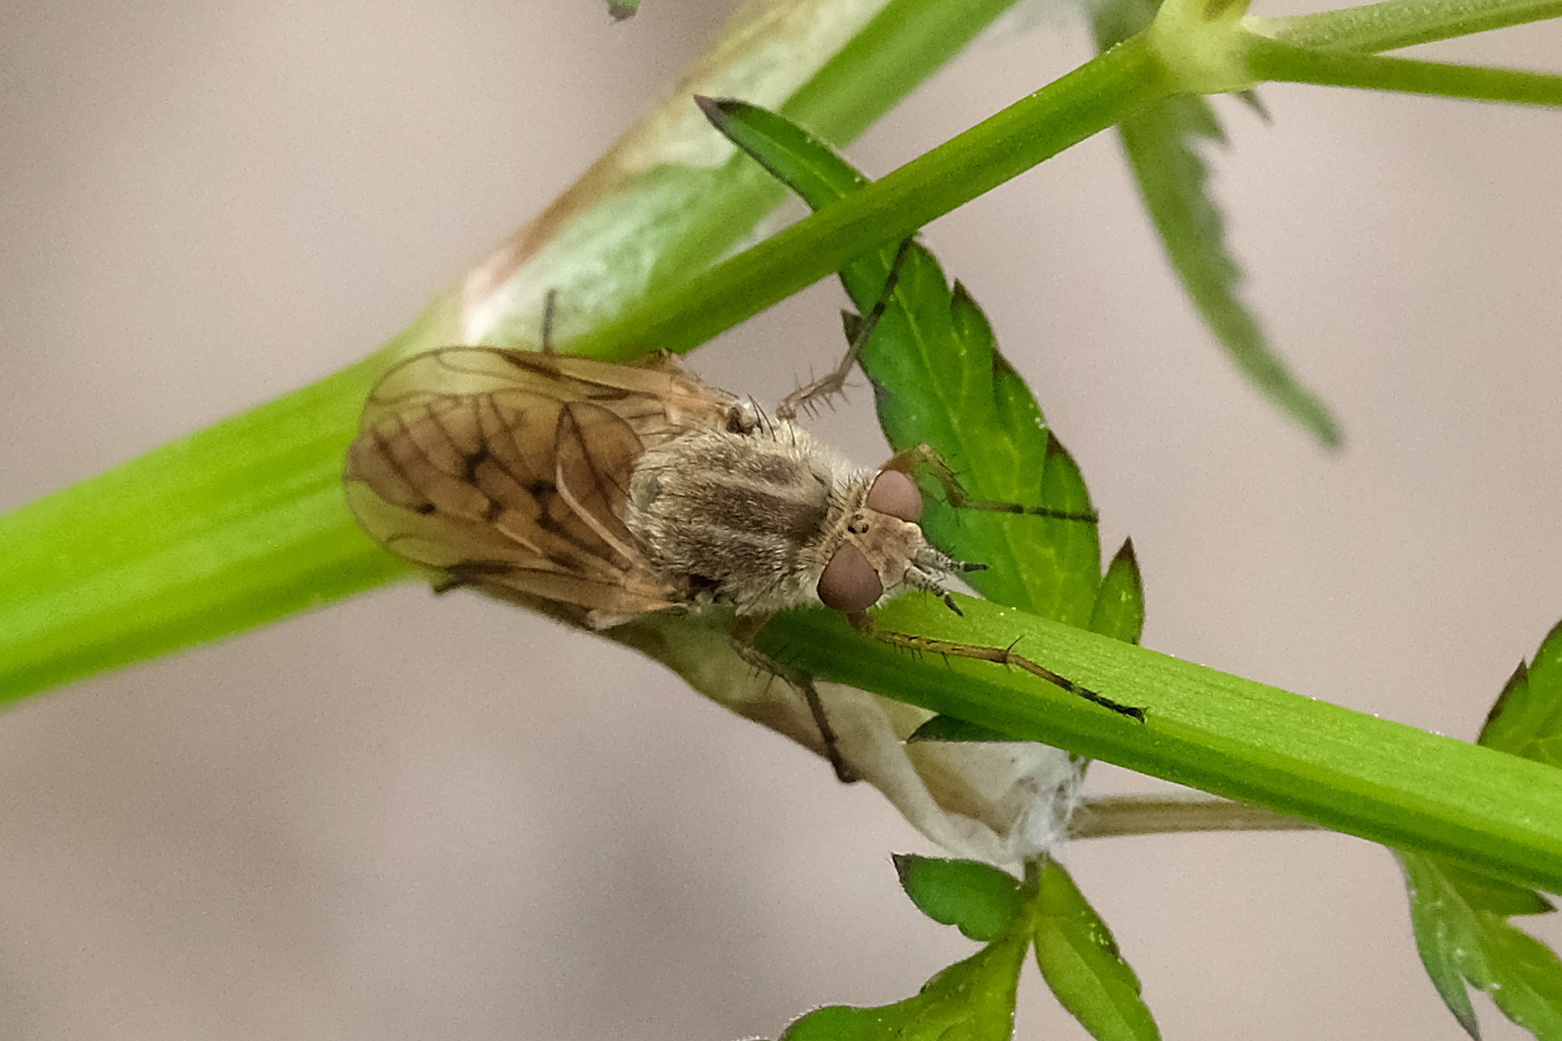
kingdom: Animalia
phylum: Arthropoda
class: Insecta
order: Diptera
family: Therevidae
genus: Dialineura
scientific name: Dialineura anilis
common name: Swollen silver-stiletto
